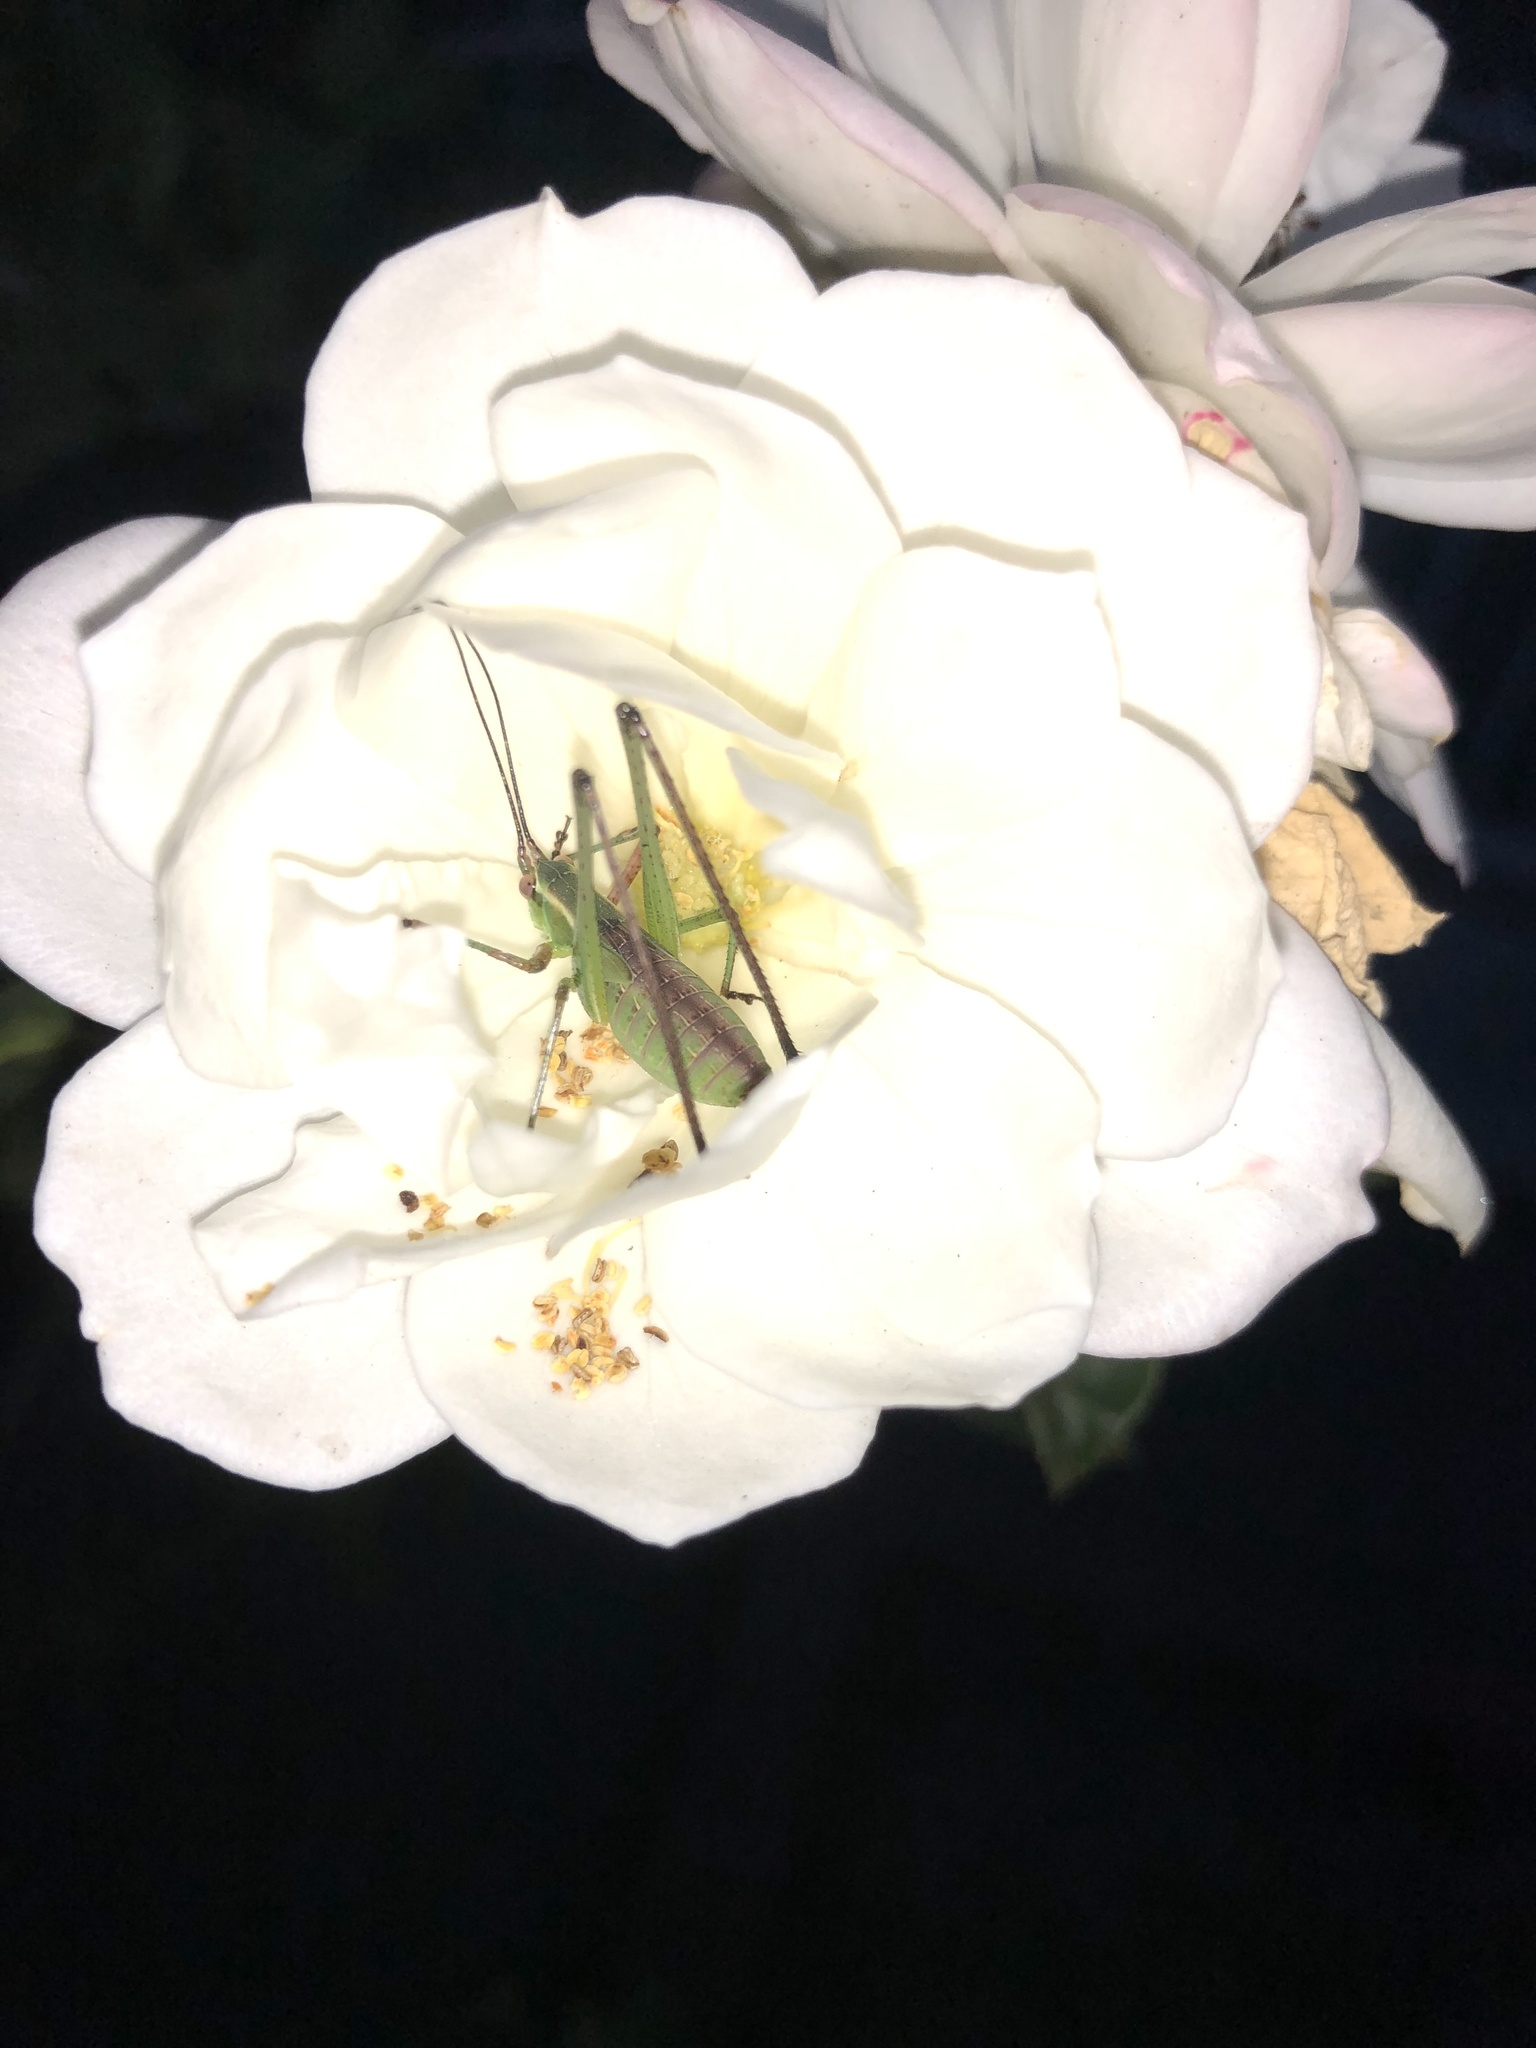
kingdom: Animalia
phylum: Arthropoda
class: Insecta
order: Orthoptera
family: Tettigoniidae
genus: Scudderia
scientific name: Scudderia
